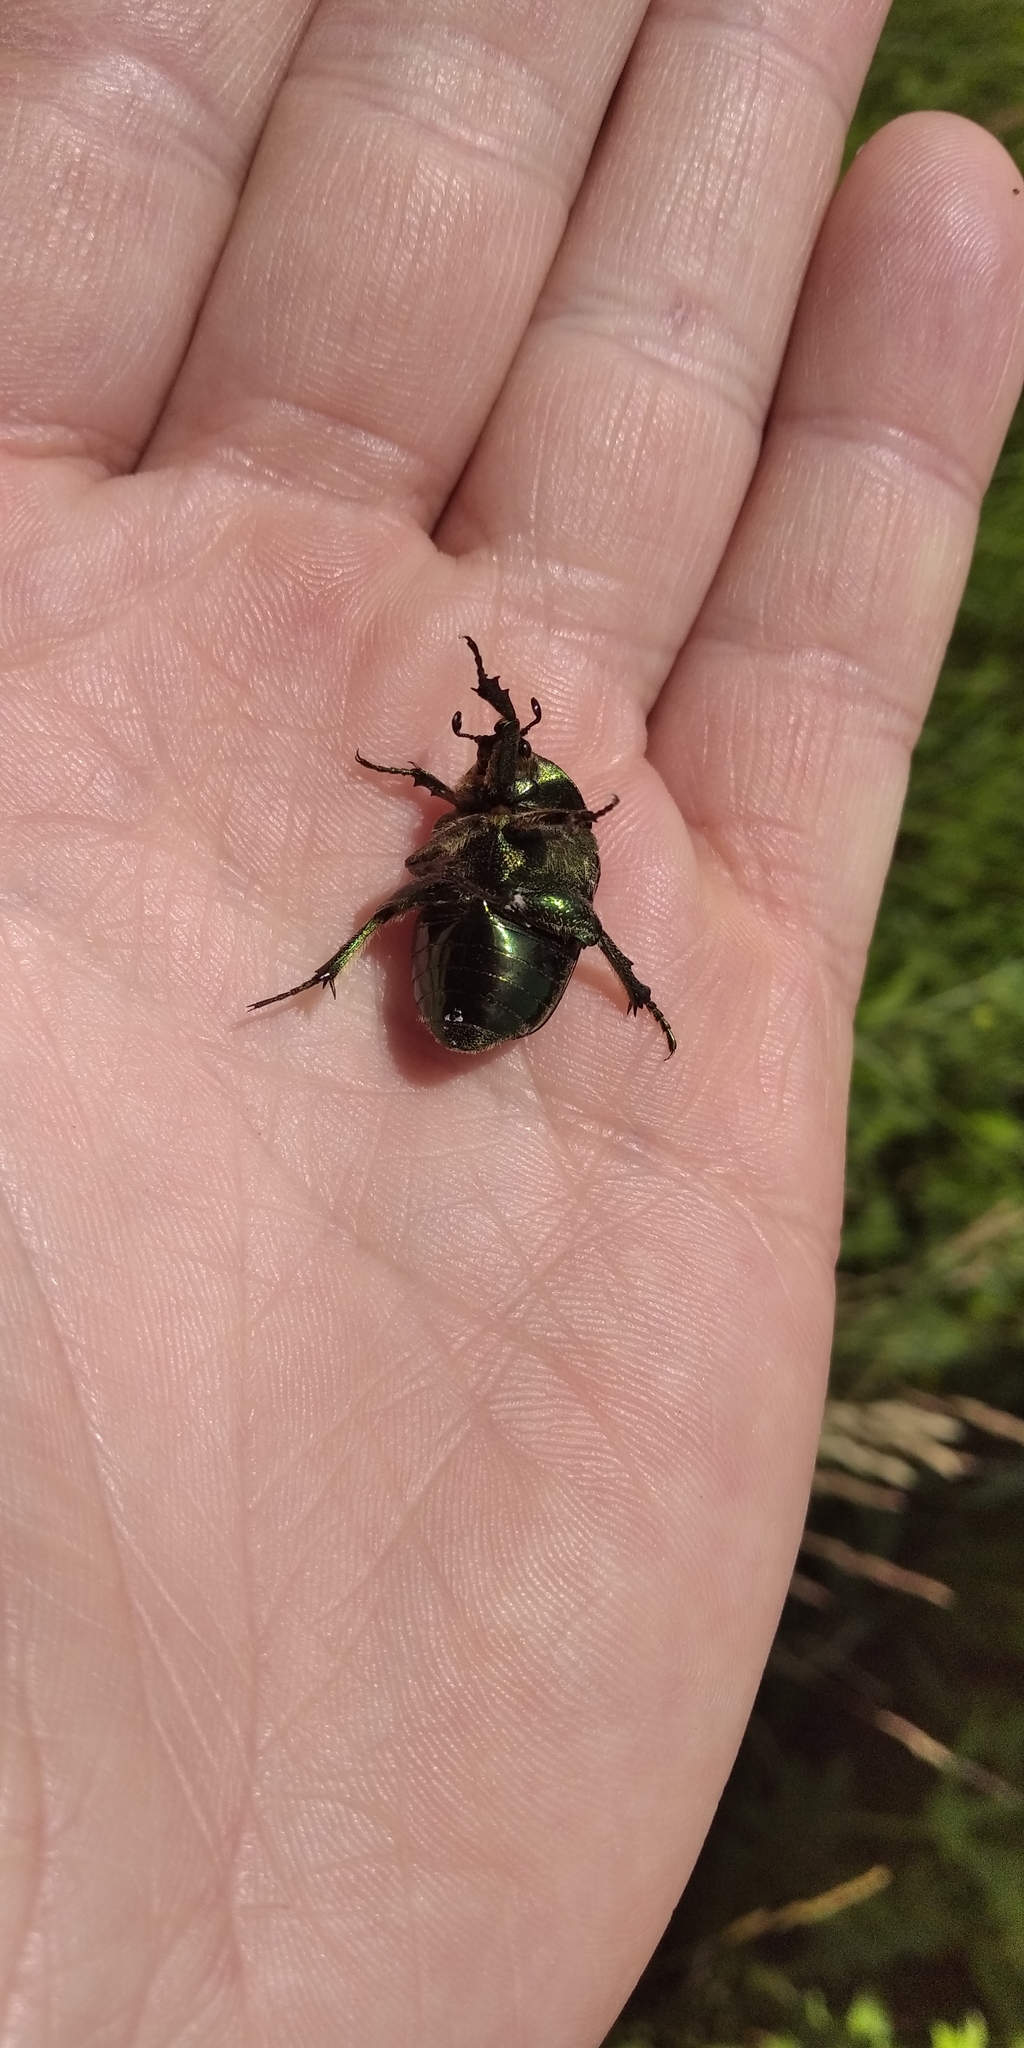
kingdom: Animalia
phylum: Arthropoda
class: Insecta
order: Coleoptera
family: Scarabaeidae
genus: Protaetia
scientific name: Protaetia ungarica
